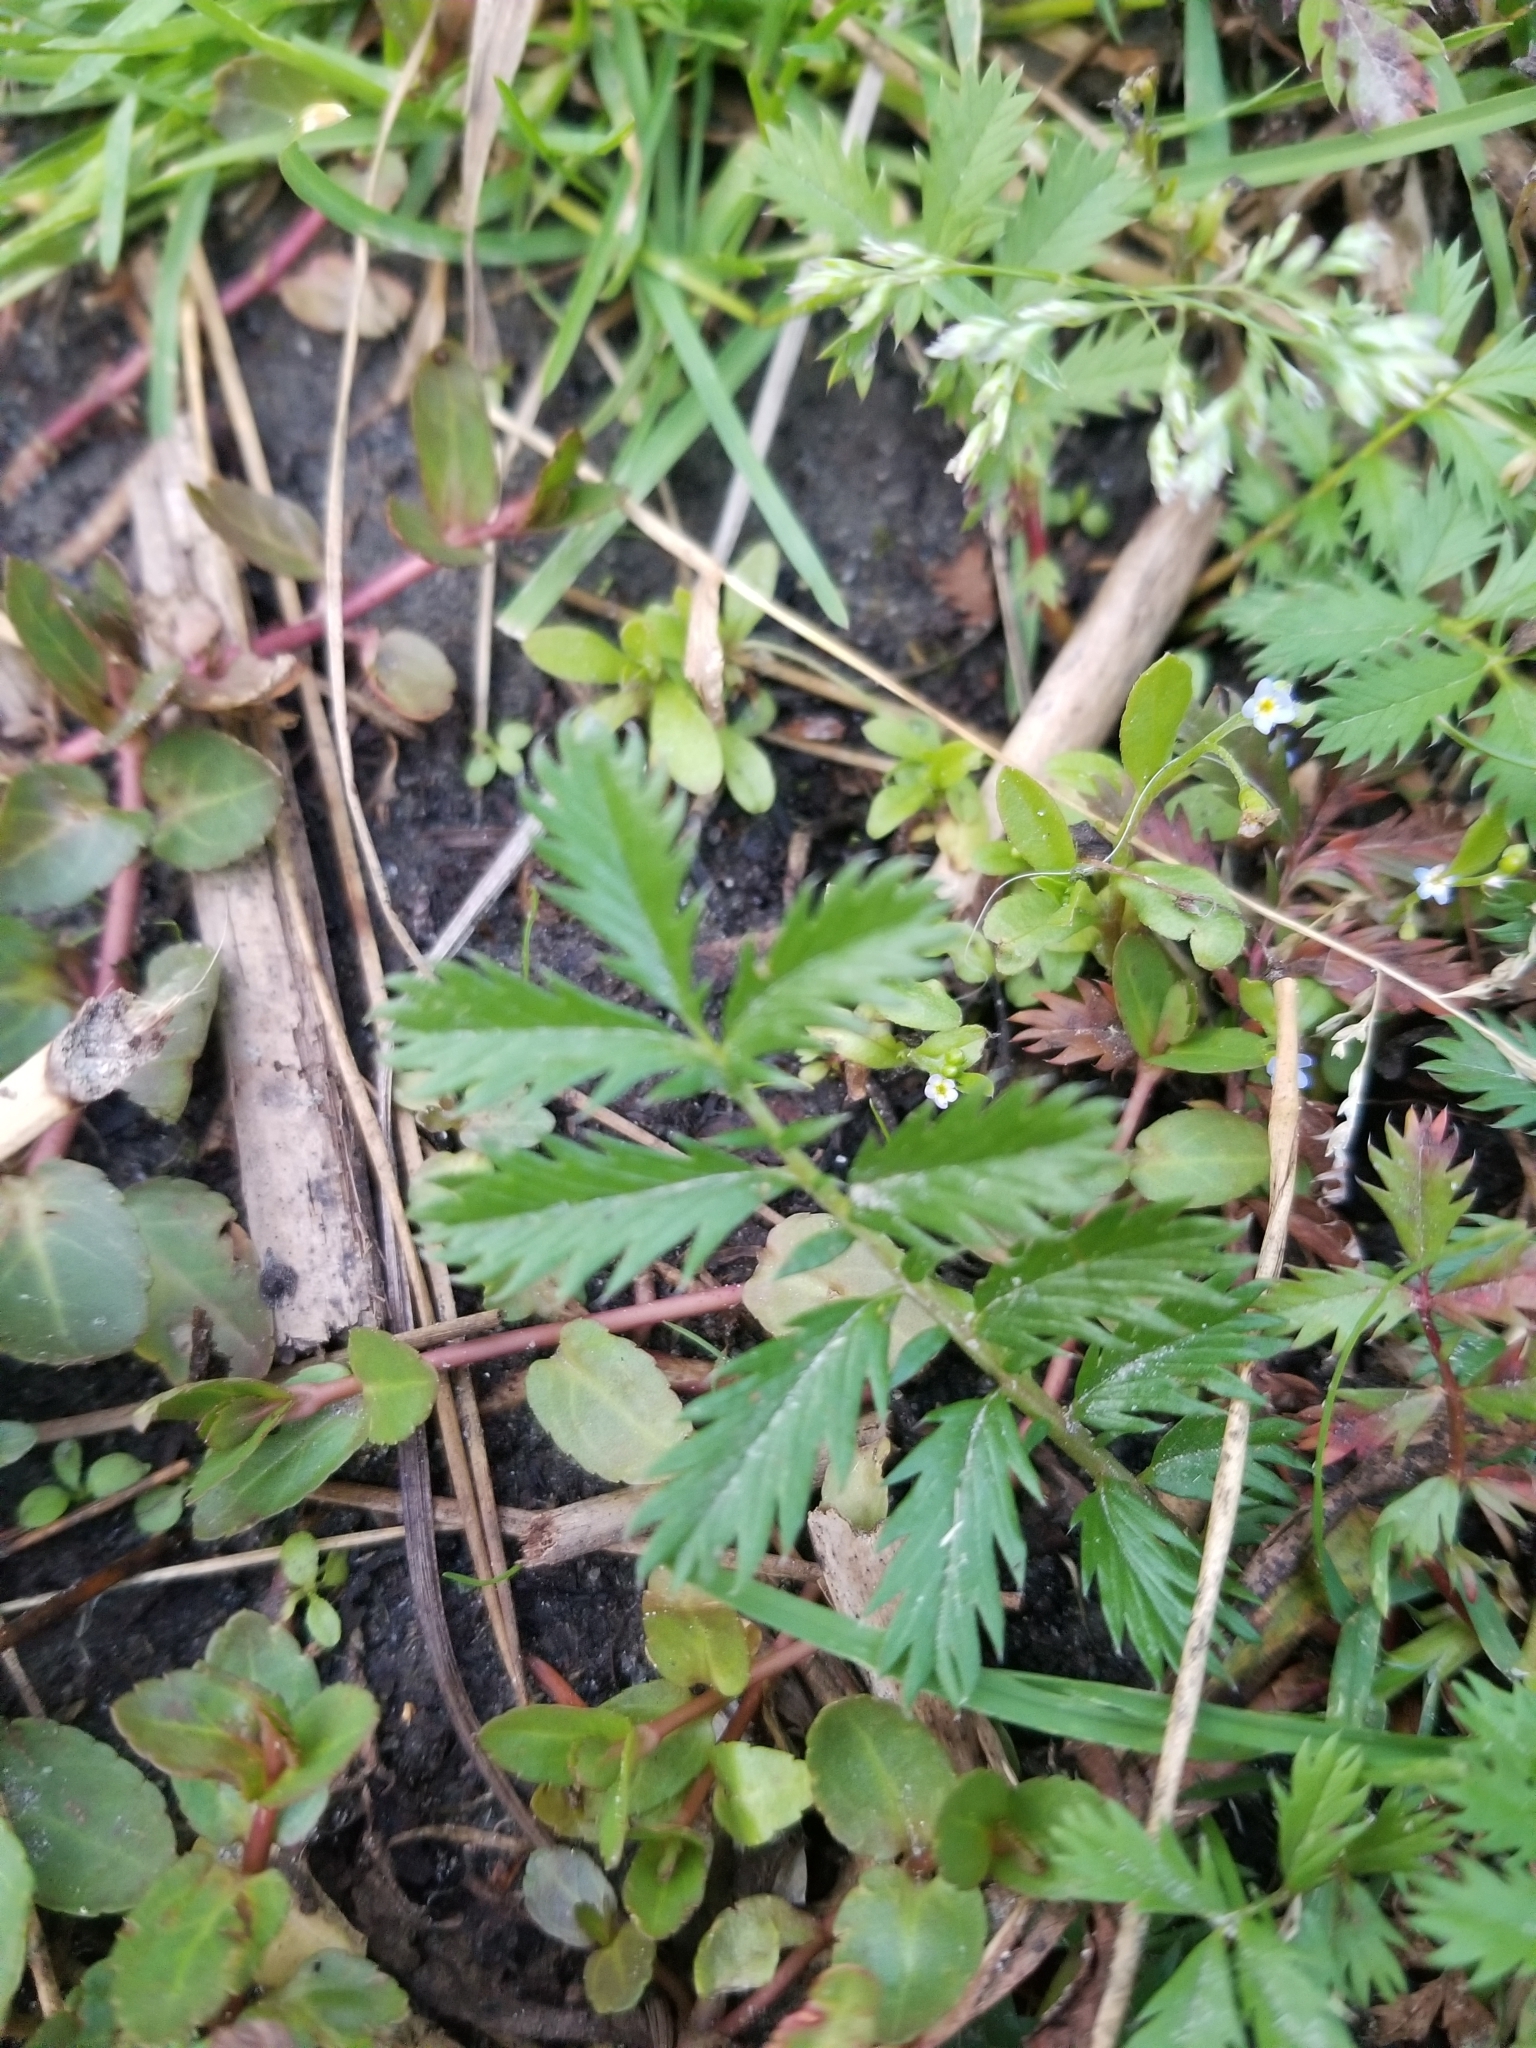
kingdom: Plantae
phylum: Tracheophyta
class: Magnoliopsida
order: Rosales
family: Rosaceae
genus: Argentina
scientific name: Argentina anserina
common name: Common silverweed
